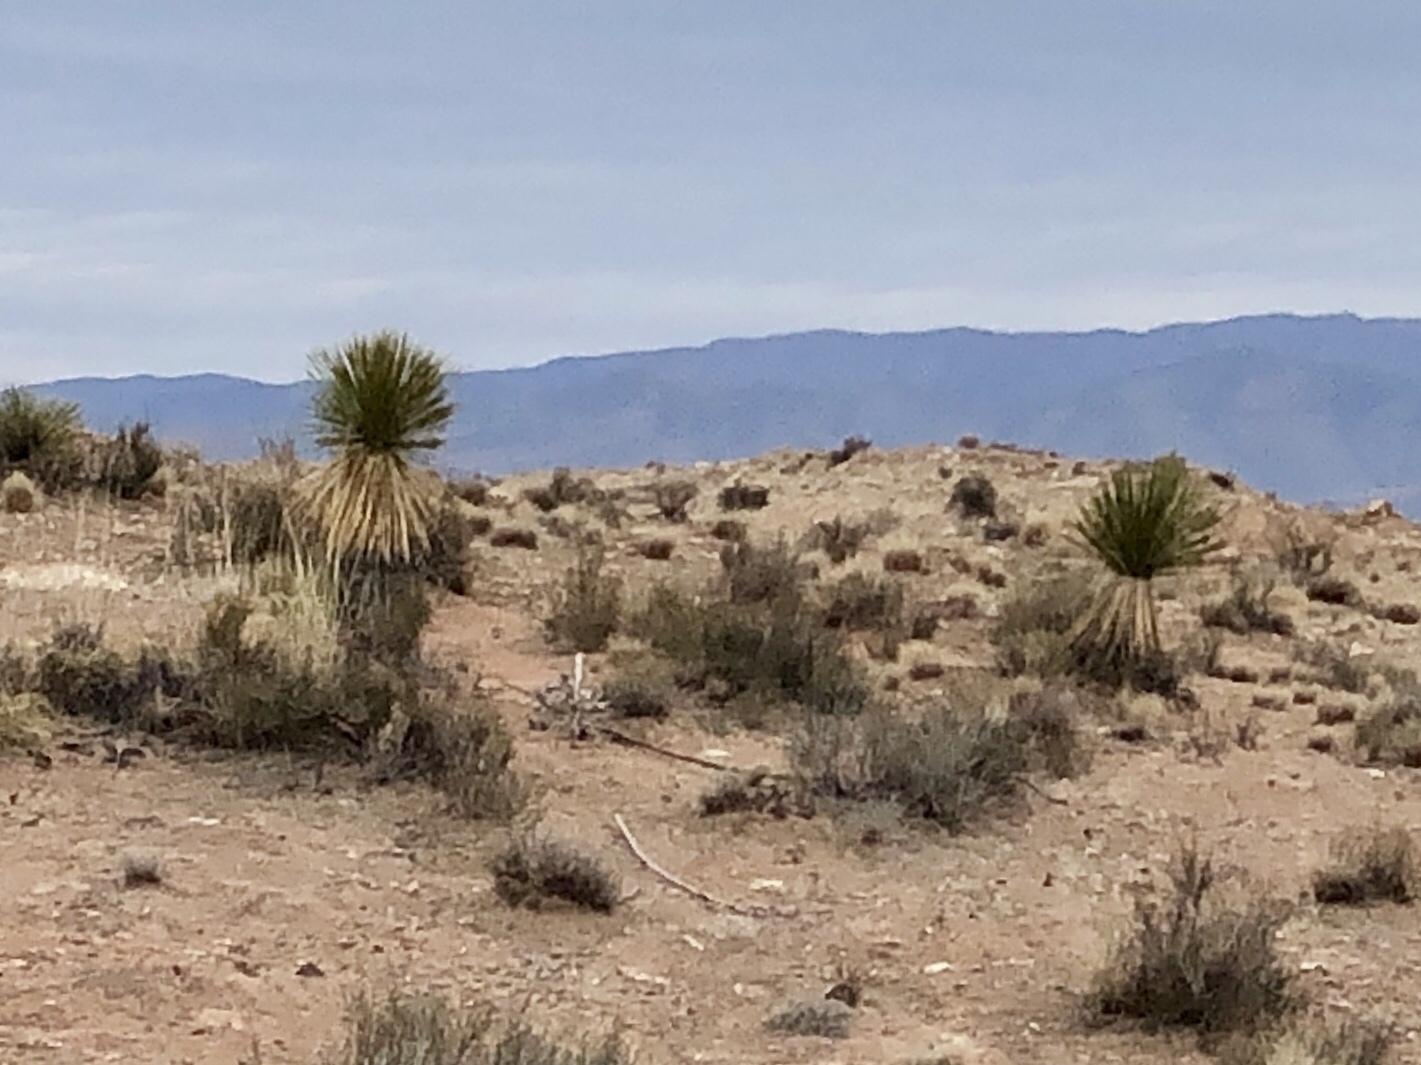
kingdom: Plantae
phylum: Tracheophyta
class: Liliopsida
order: Asparagales
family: Asparagaceae
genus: Yucca
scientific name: Yucca elata
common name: Palmella
